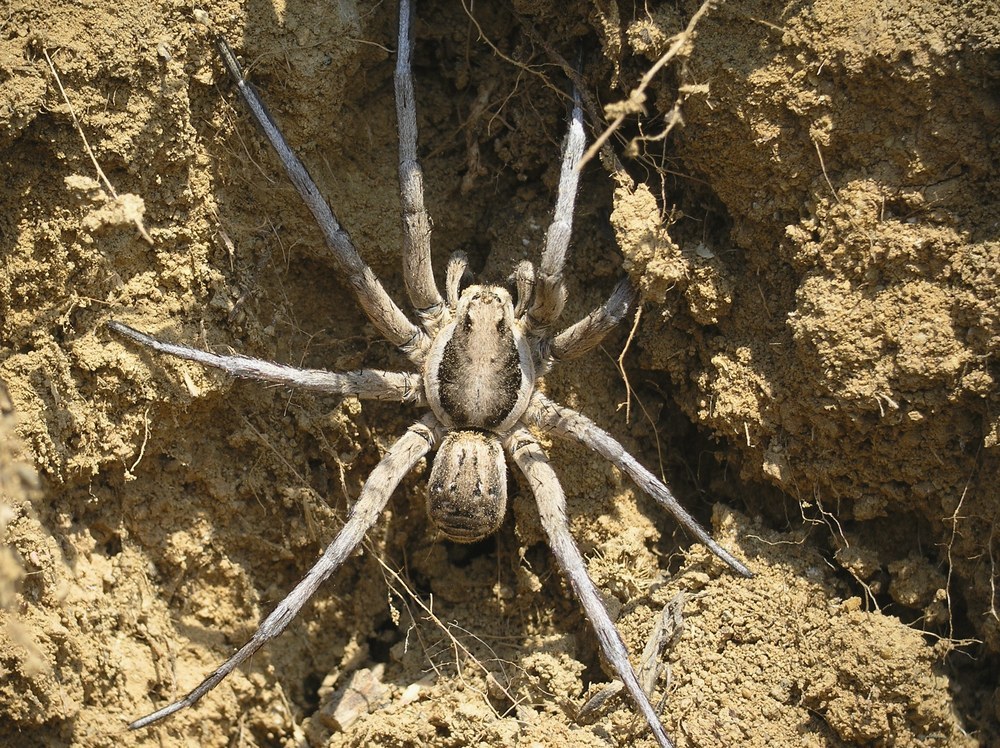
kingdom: Animalia
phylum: Arthropoda
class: Arachnida
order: Araneae
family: Lycosidae
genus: Lycosa
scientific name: Lycosa praegrandis
